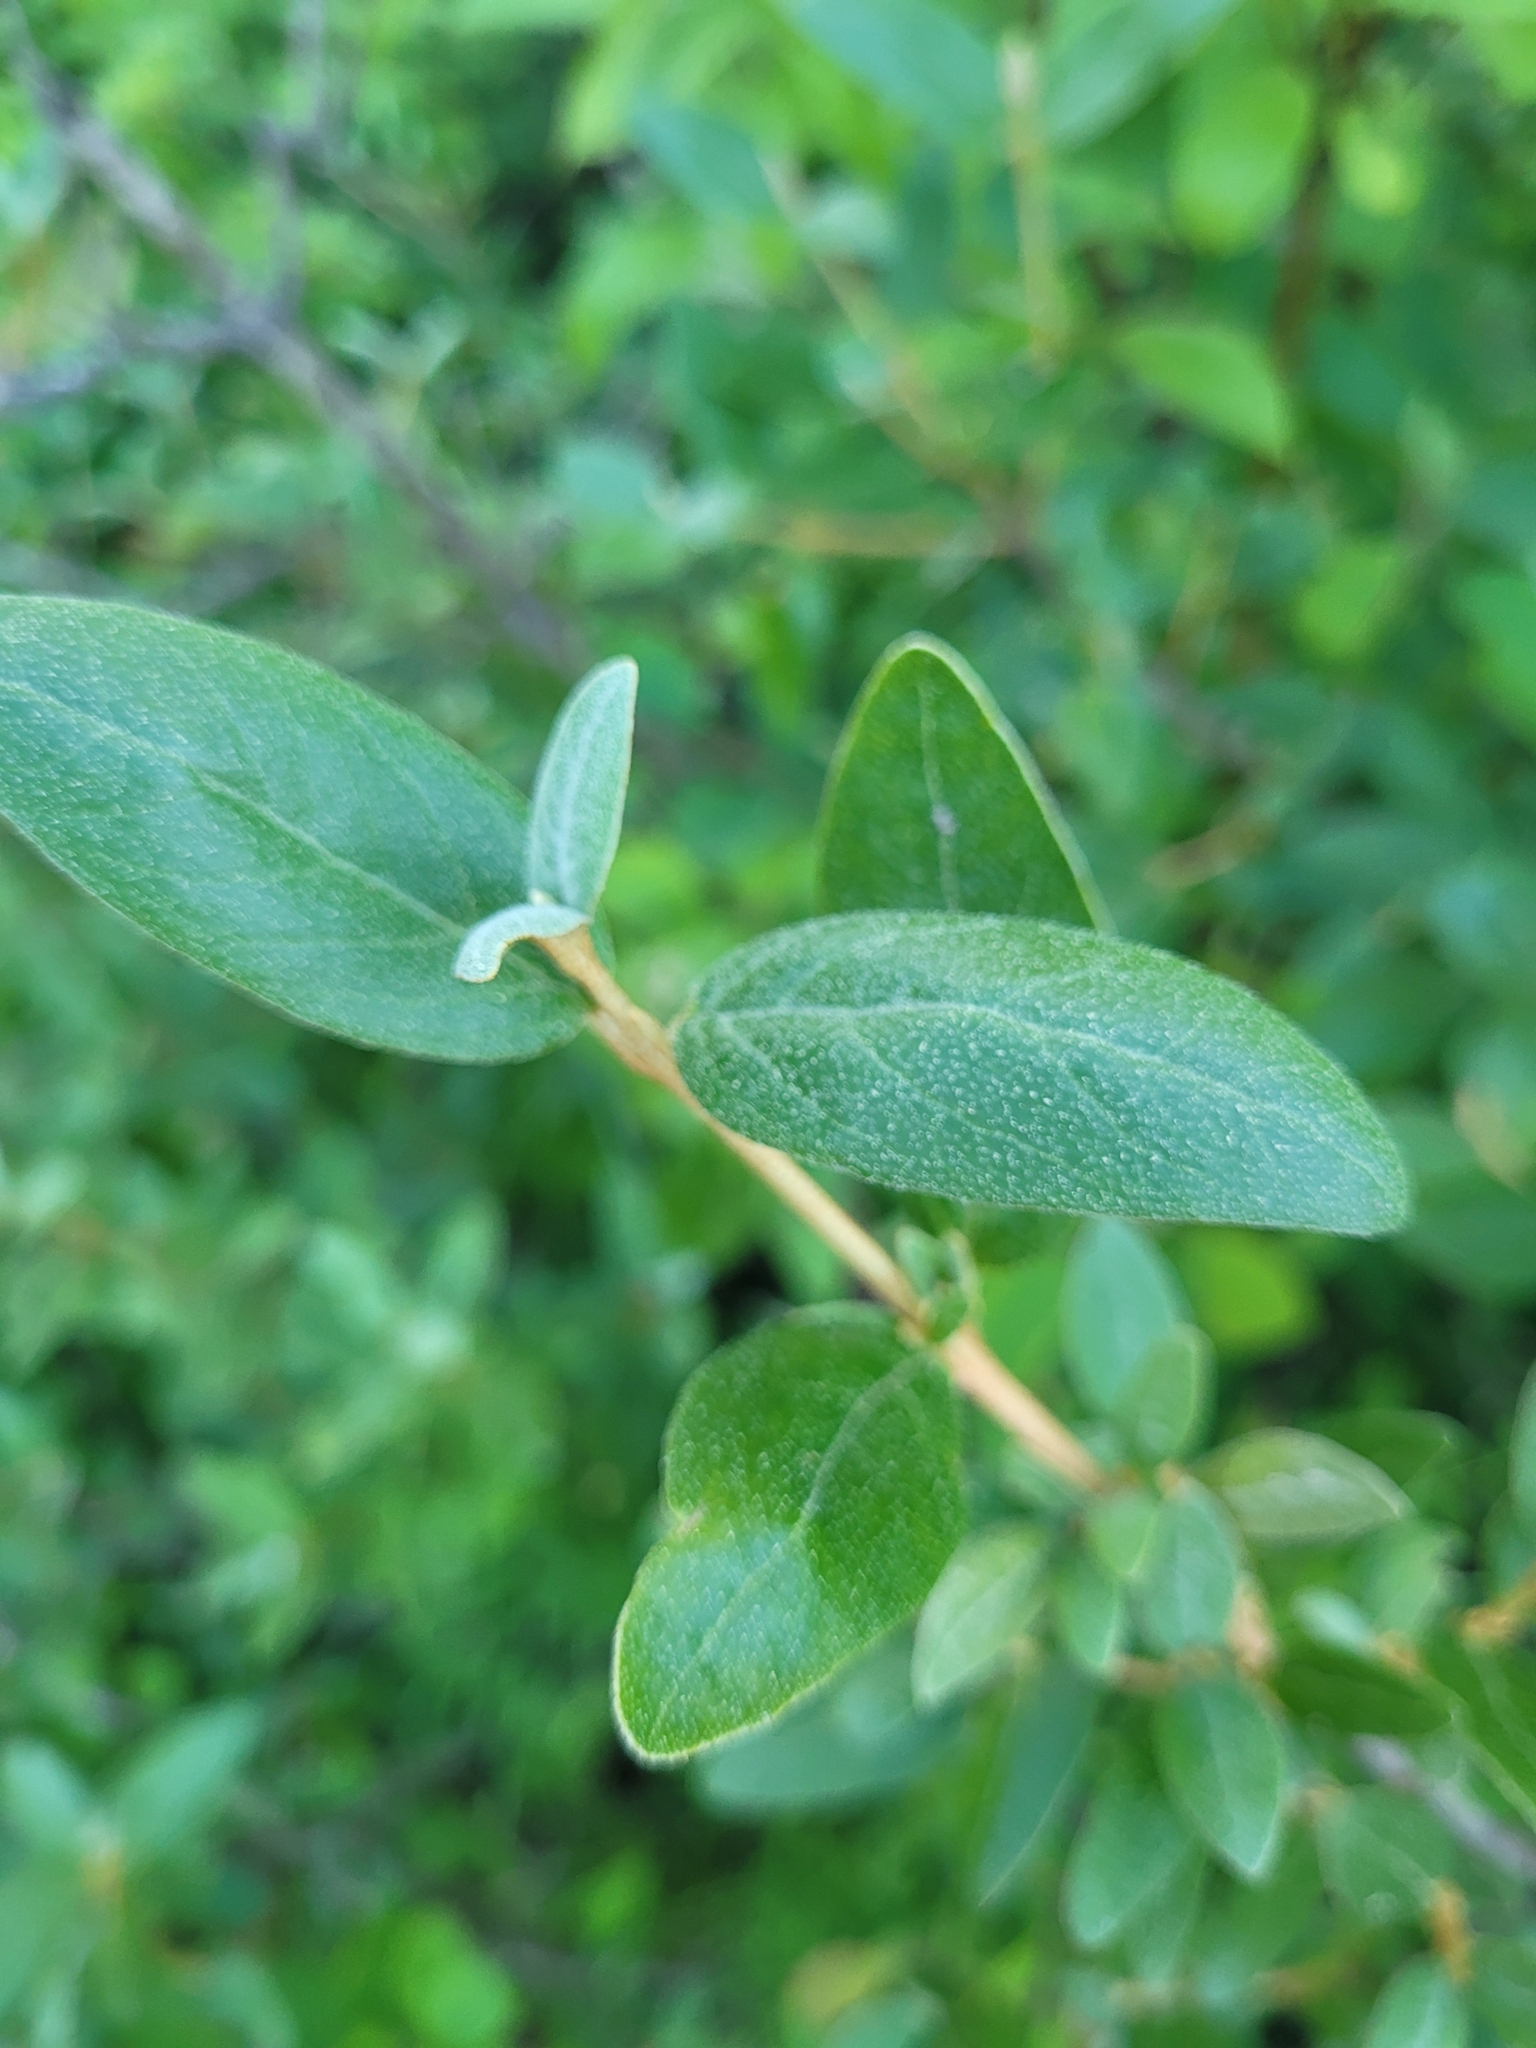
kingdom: Plantae
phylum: Tracheophyta
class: Magnoliopsida
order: Rosales
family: Elaeagnaceae
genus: Shepherdia
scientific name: Shepherdia canadensis
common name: Soapberry
